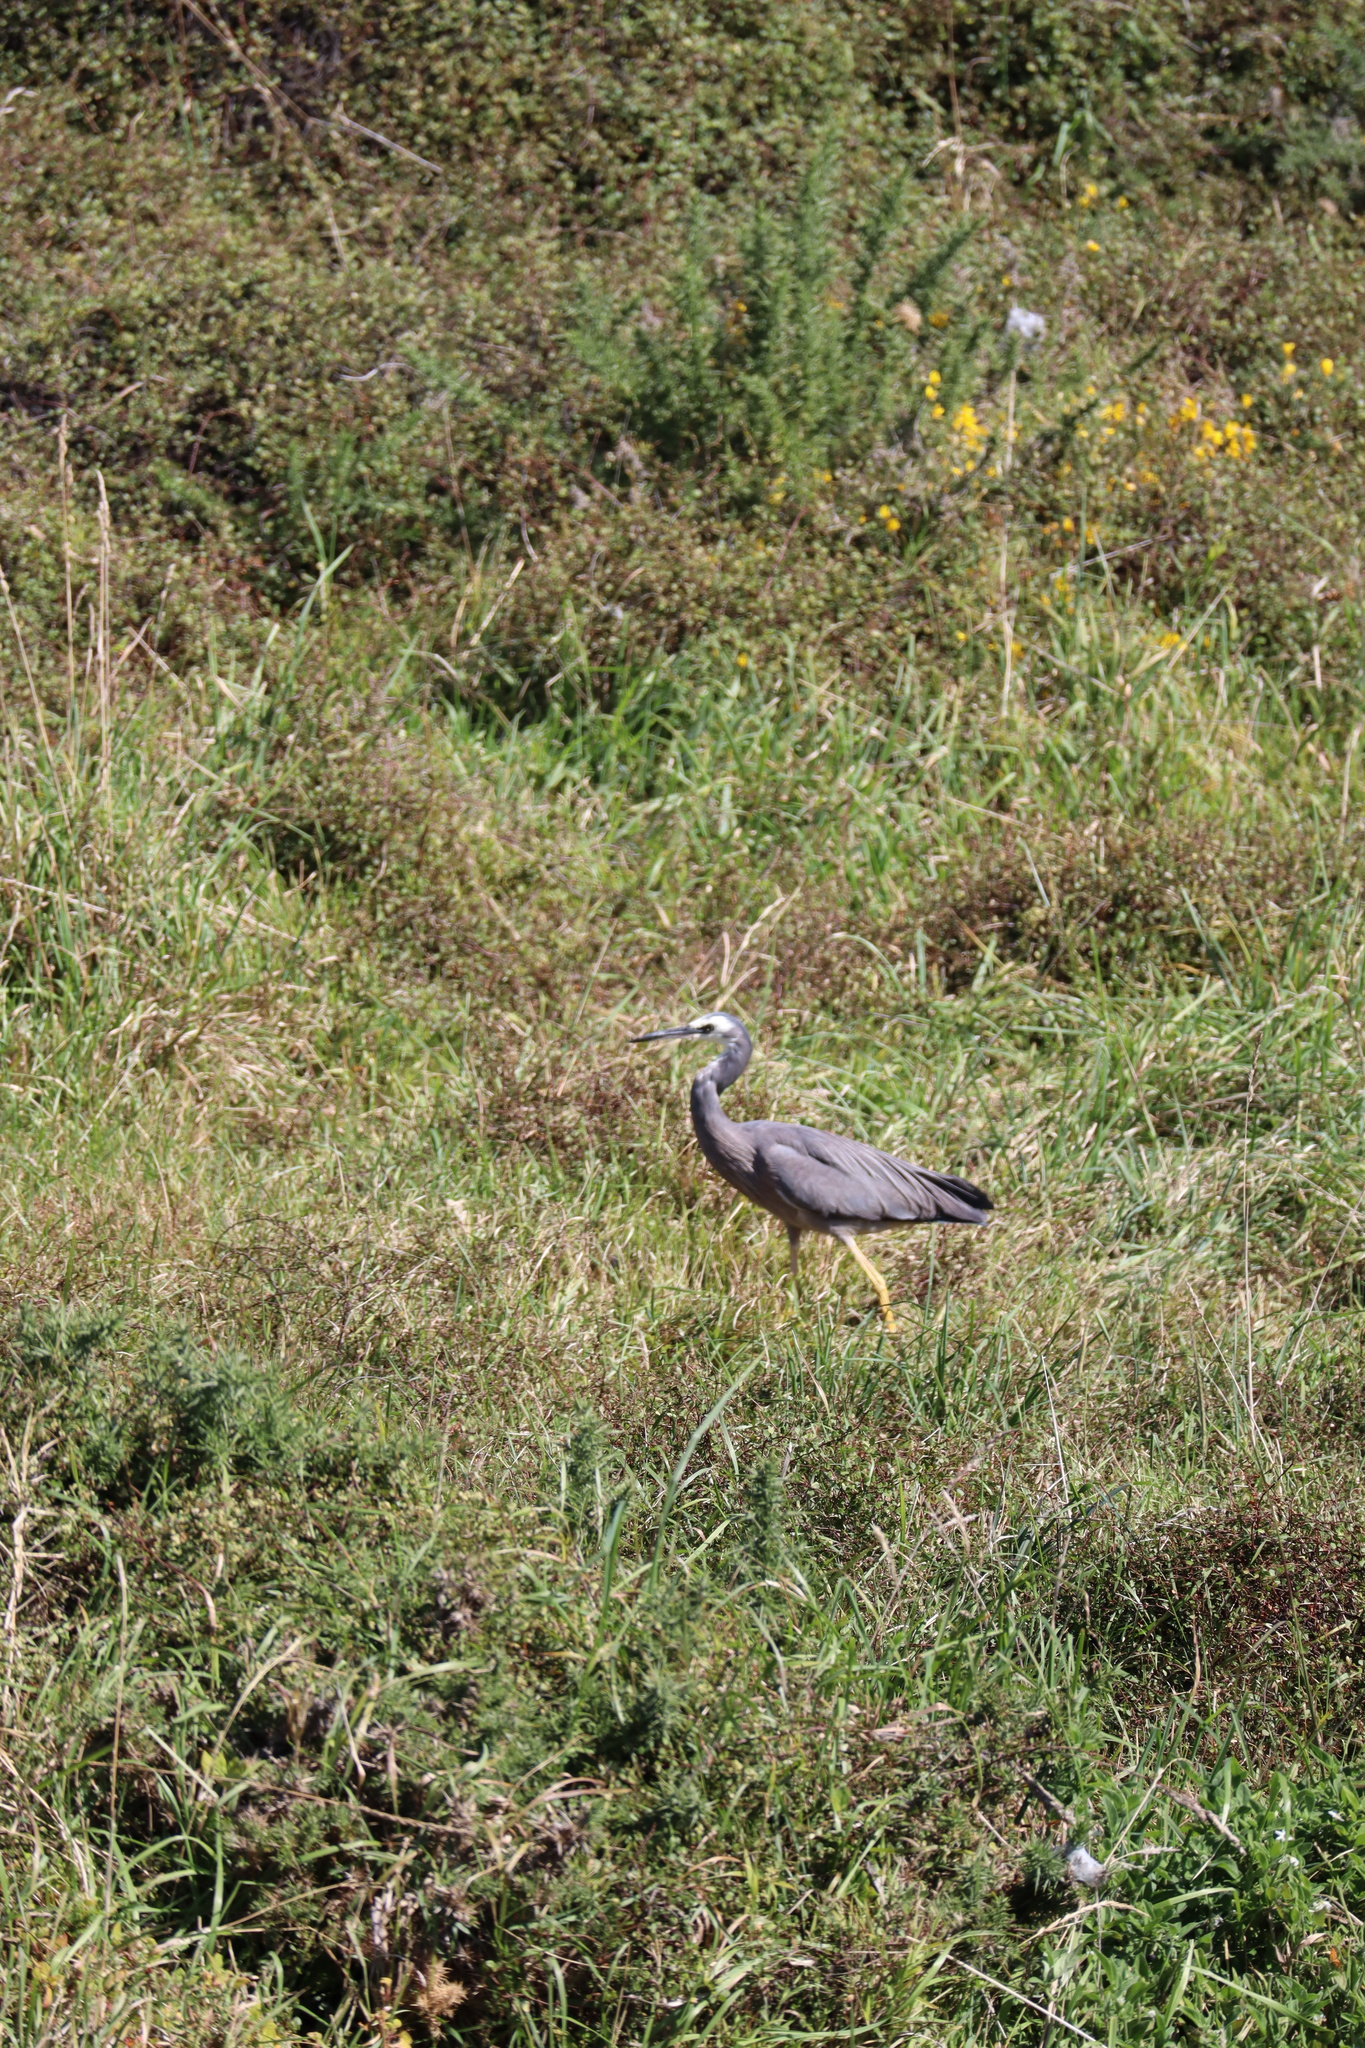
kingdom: Animalia
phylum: Chordata
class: Aves
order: Pelecaniformes
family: Ardeidae
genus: Egretta
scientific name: Egretta novaehollandiae
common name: White-faced heron
